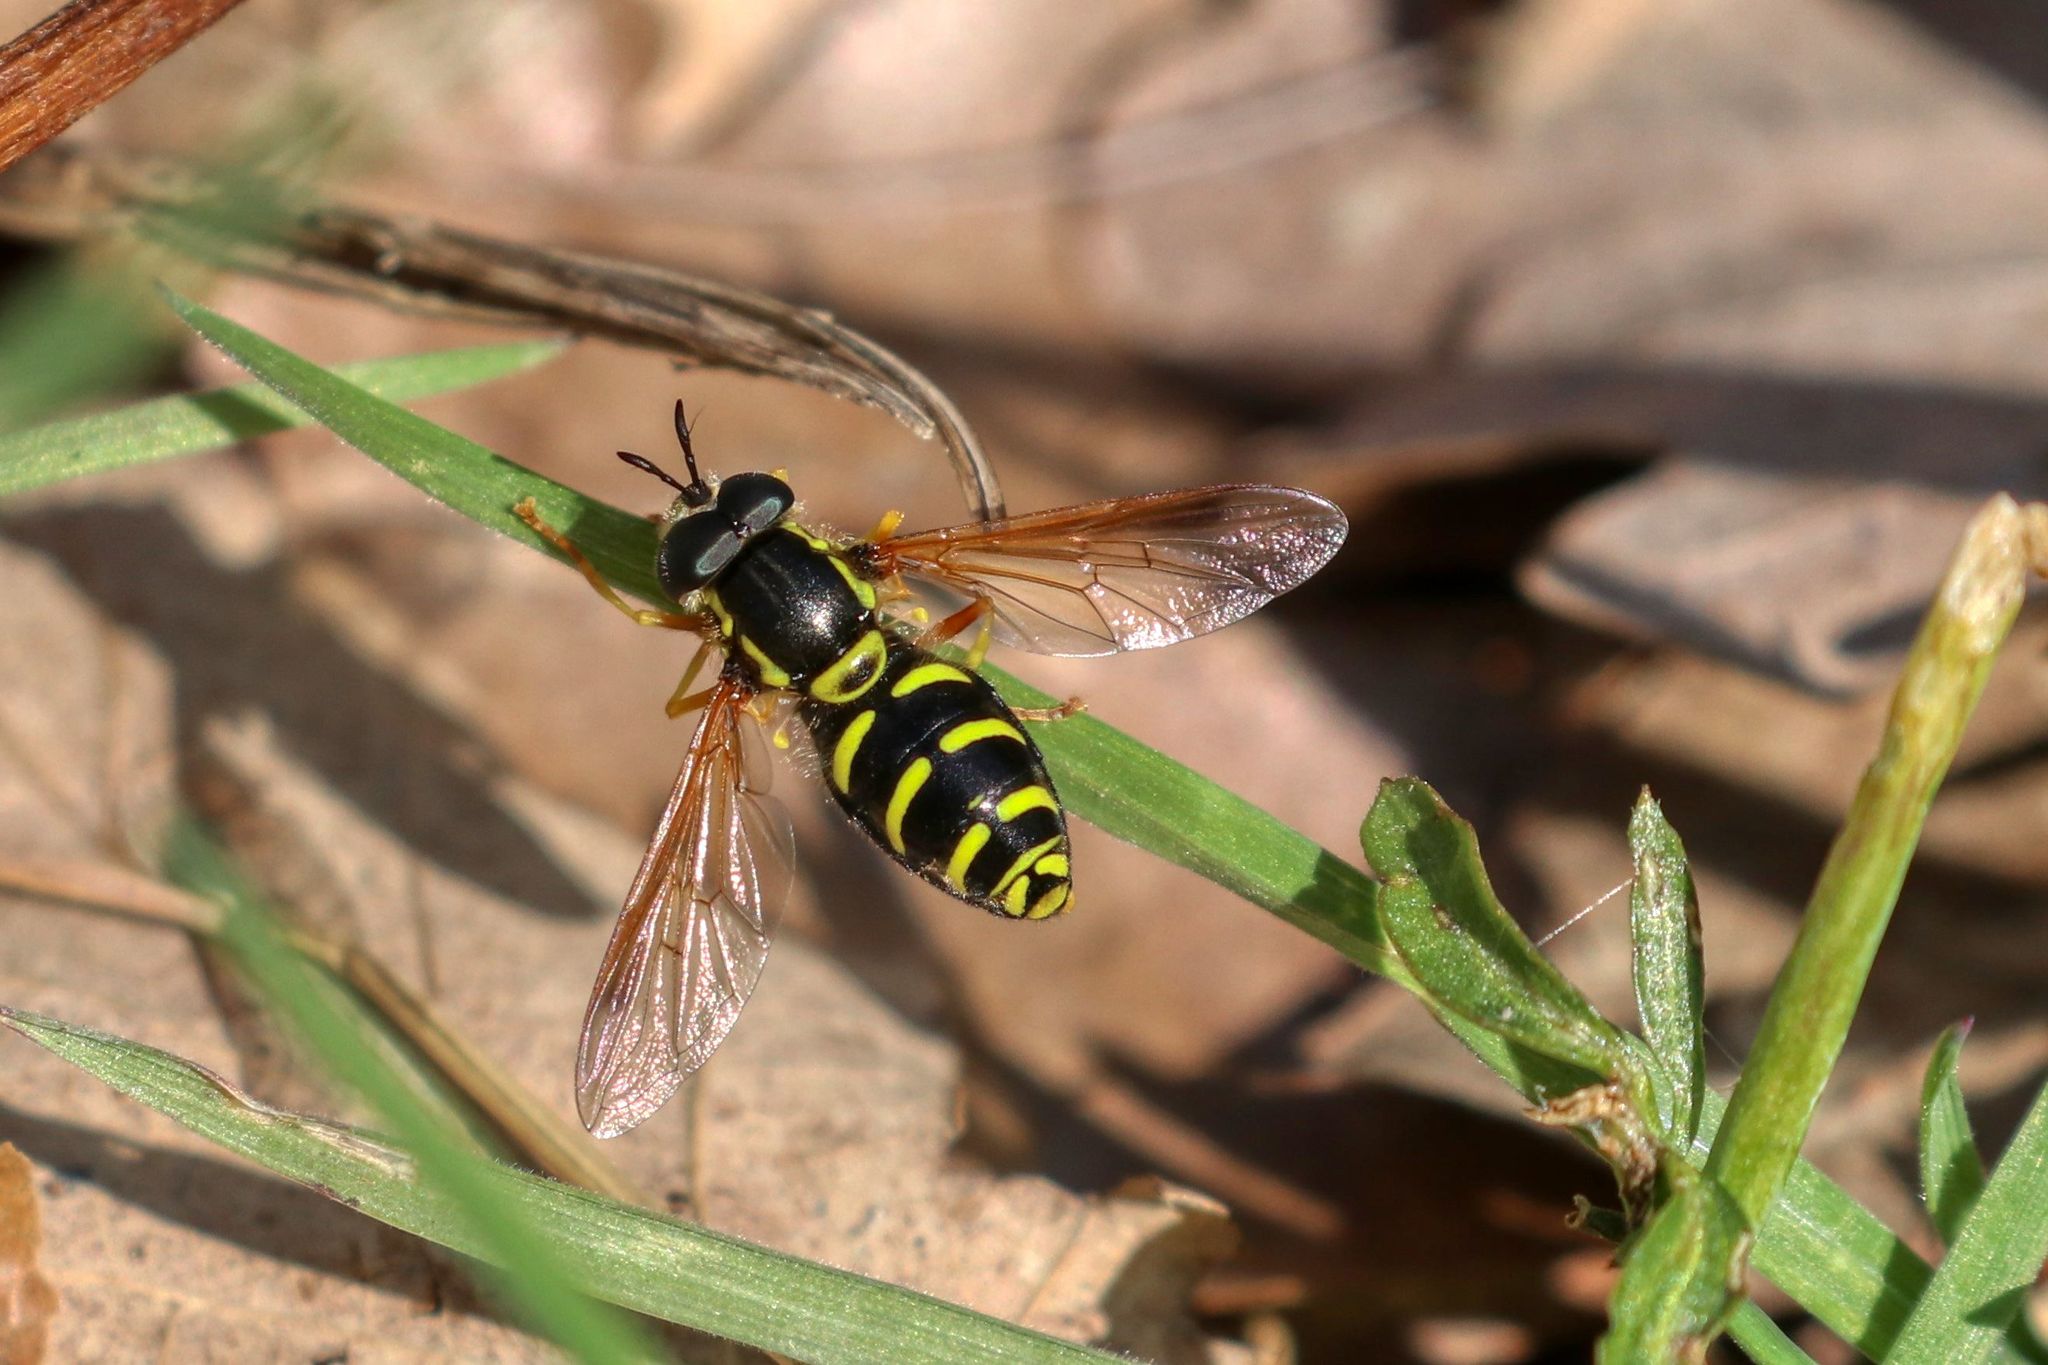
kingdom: Animalia
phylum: Arthropoda
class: Insecta
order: Diptera
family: Syrphidae
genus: Chrysotoxum
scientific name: Chrysotoxum
